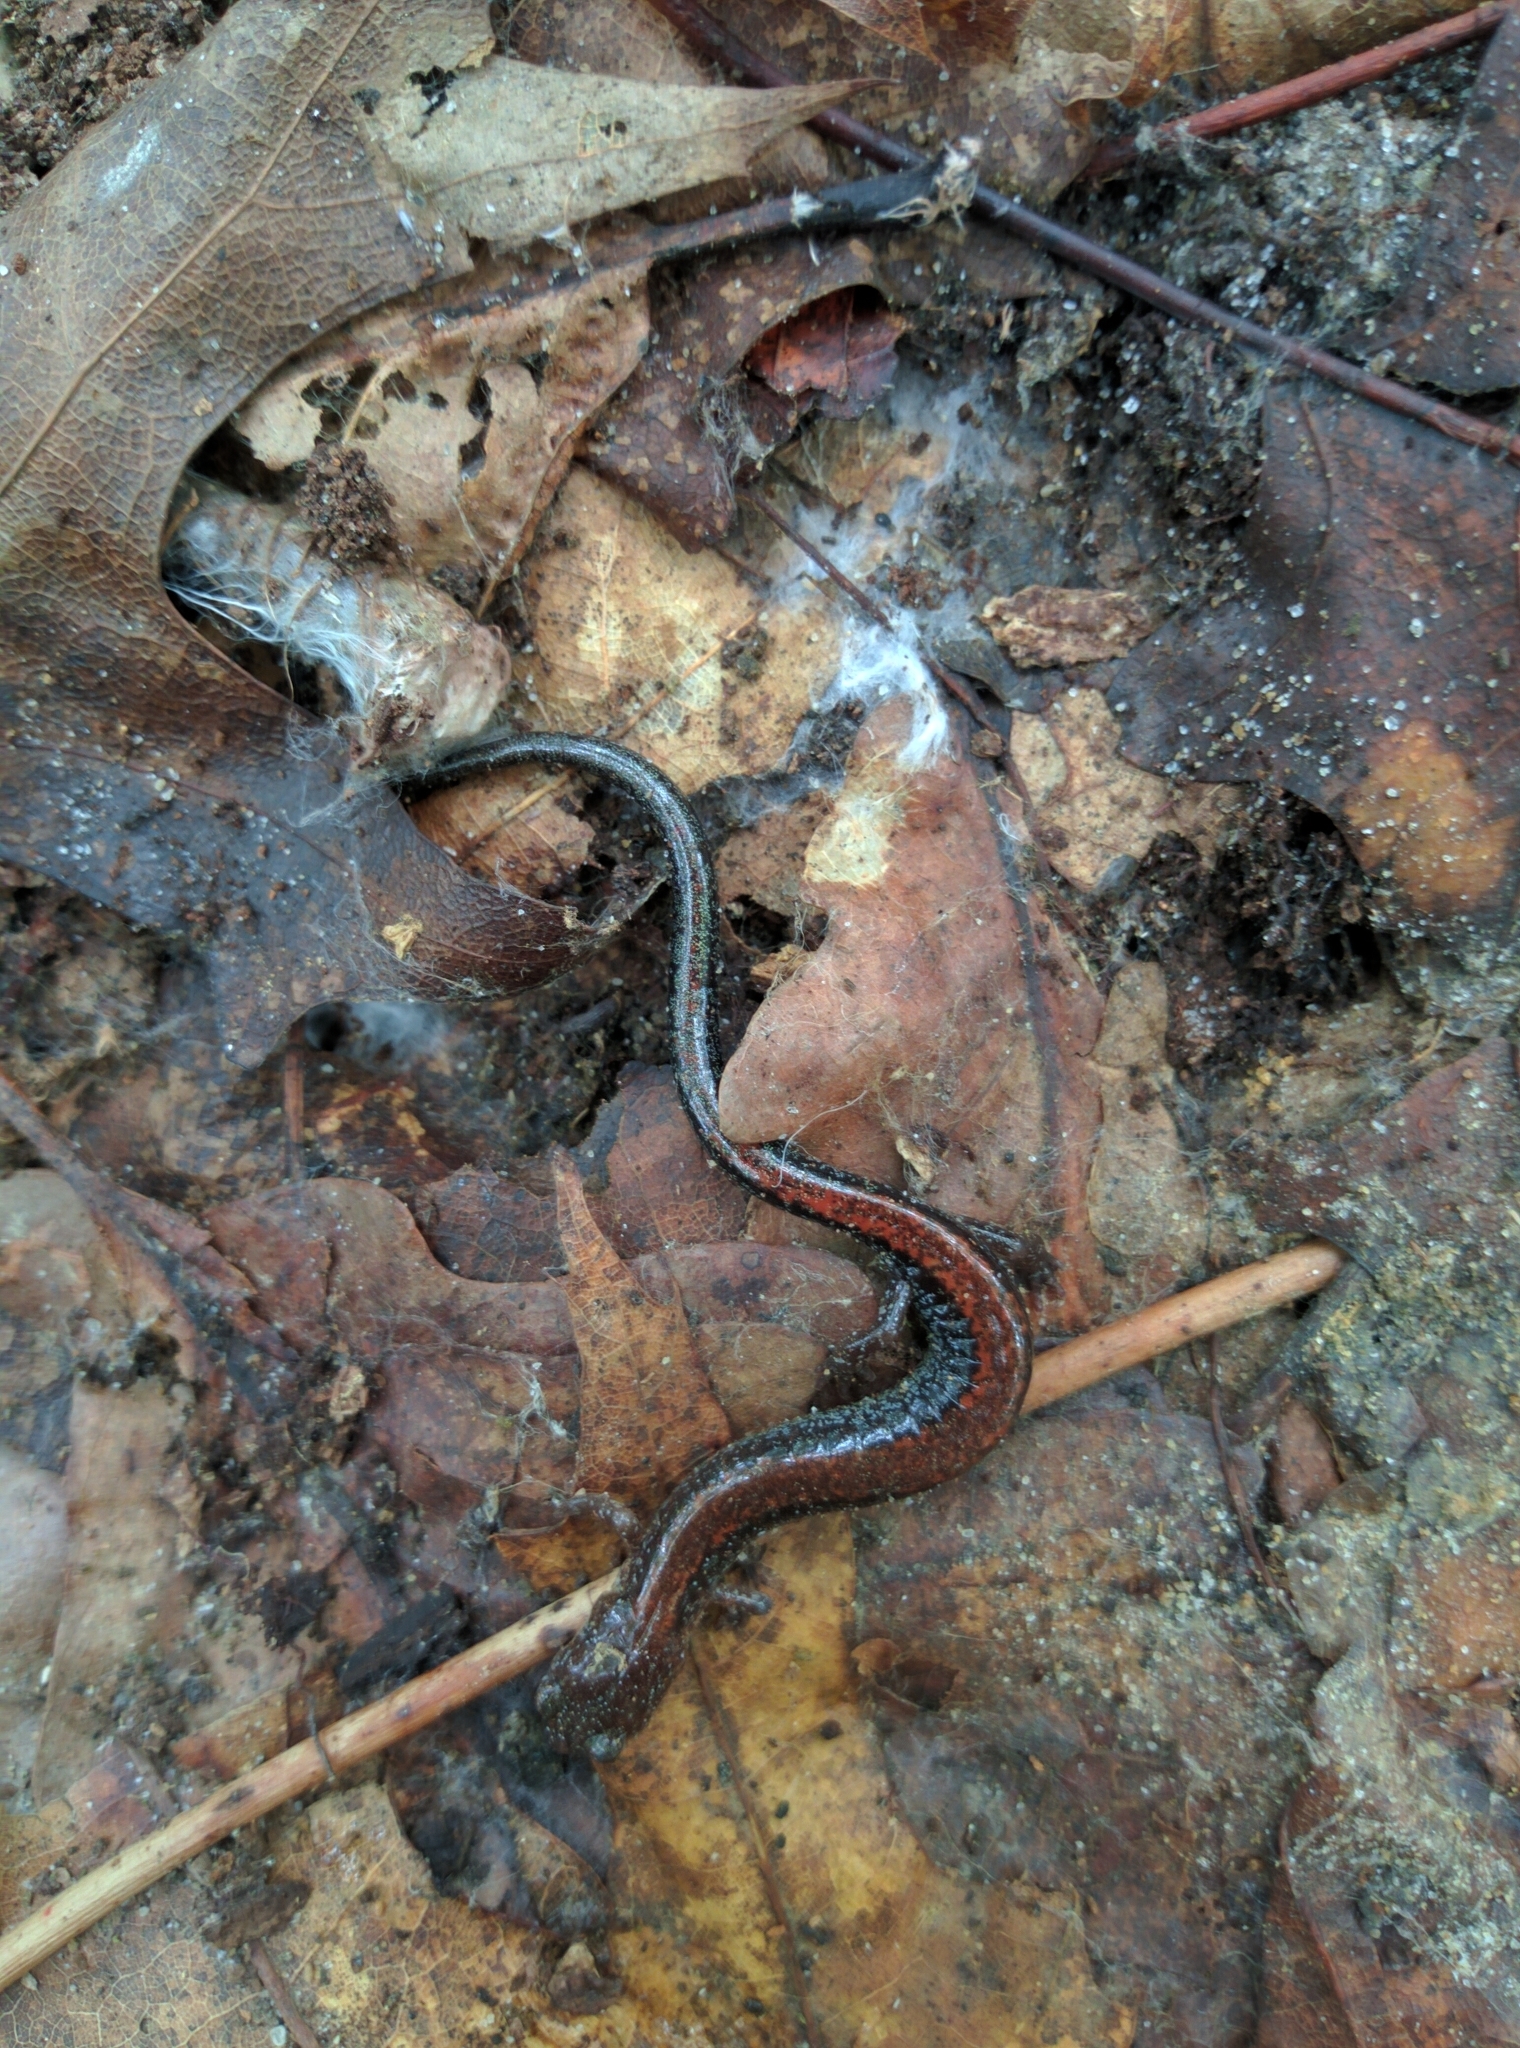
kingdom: Animalia
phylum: Chordata
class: Amphibia
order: Caudata
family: Plethodontidae
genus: Plethodon
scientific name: Plethodon cinereus
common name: Redback salamander
